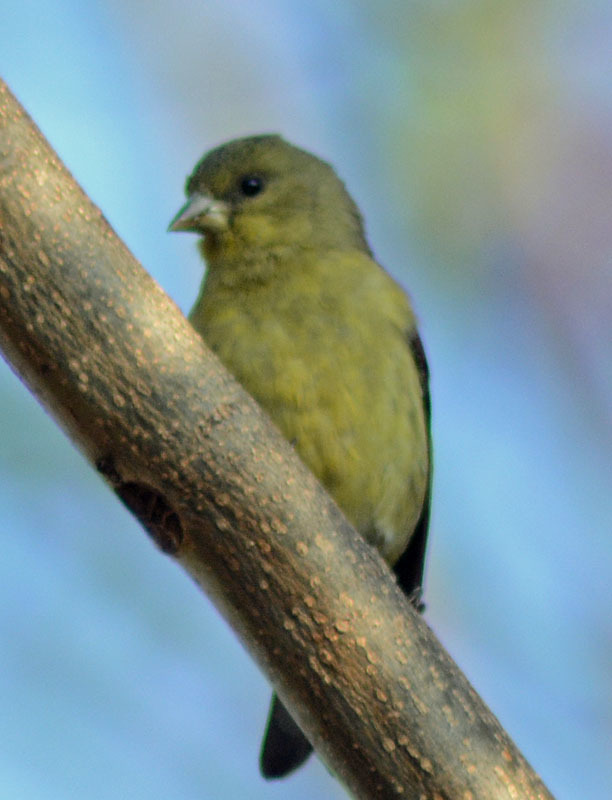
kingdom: Animalia
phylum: Chordata
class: Aves
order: Passeriformes
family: Fringillidae
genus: Spinus
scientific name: Spinus psaltria
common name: Lesser goldfinch
